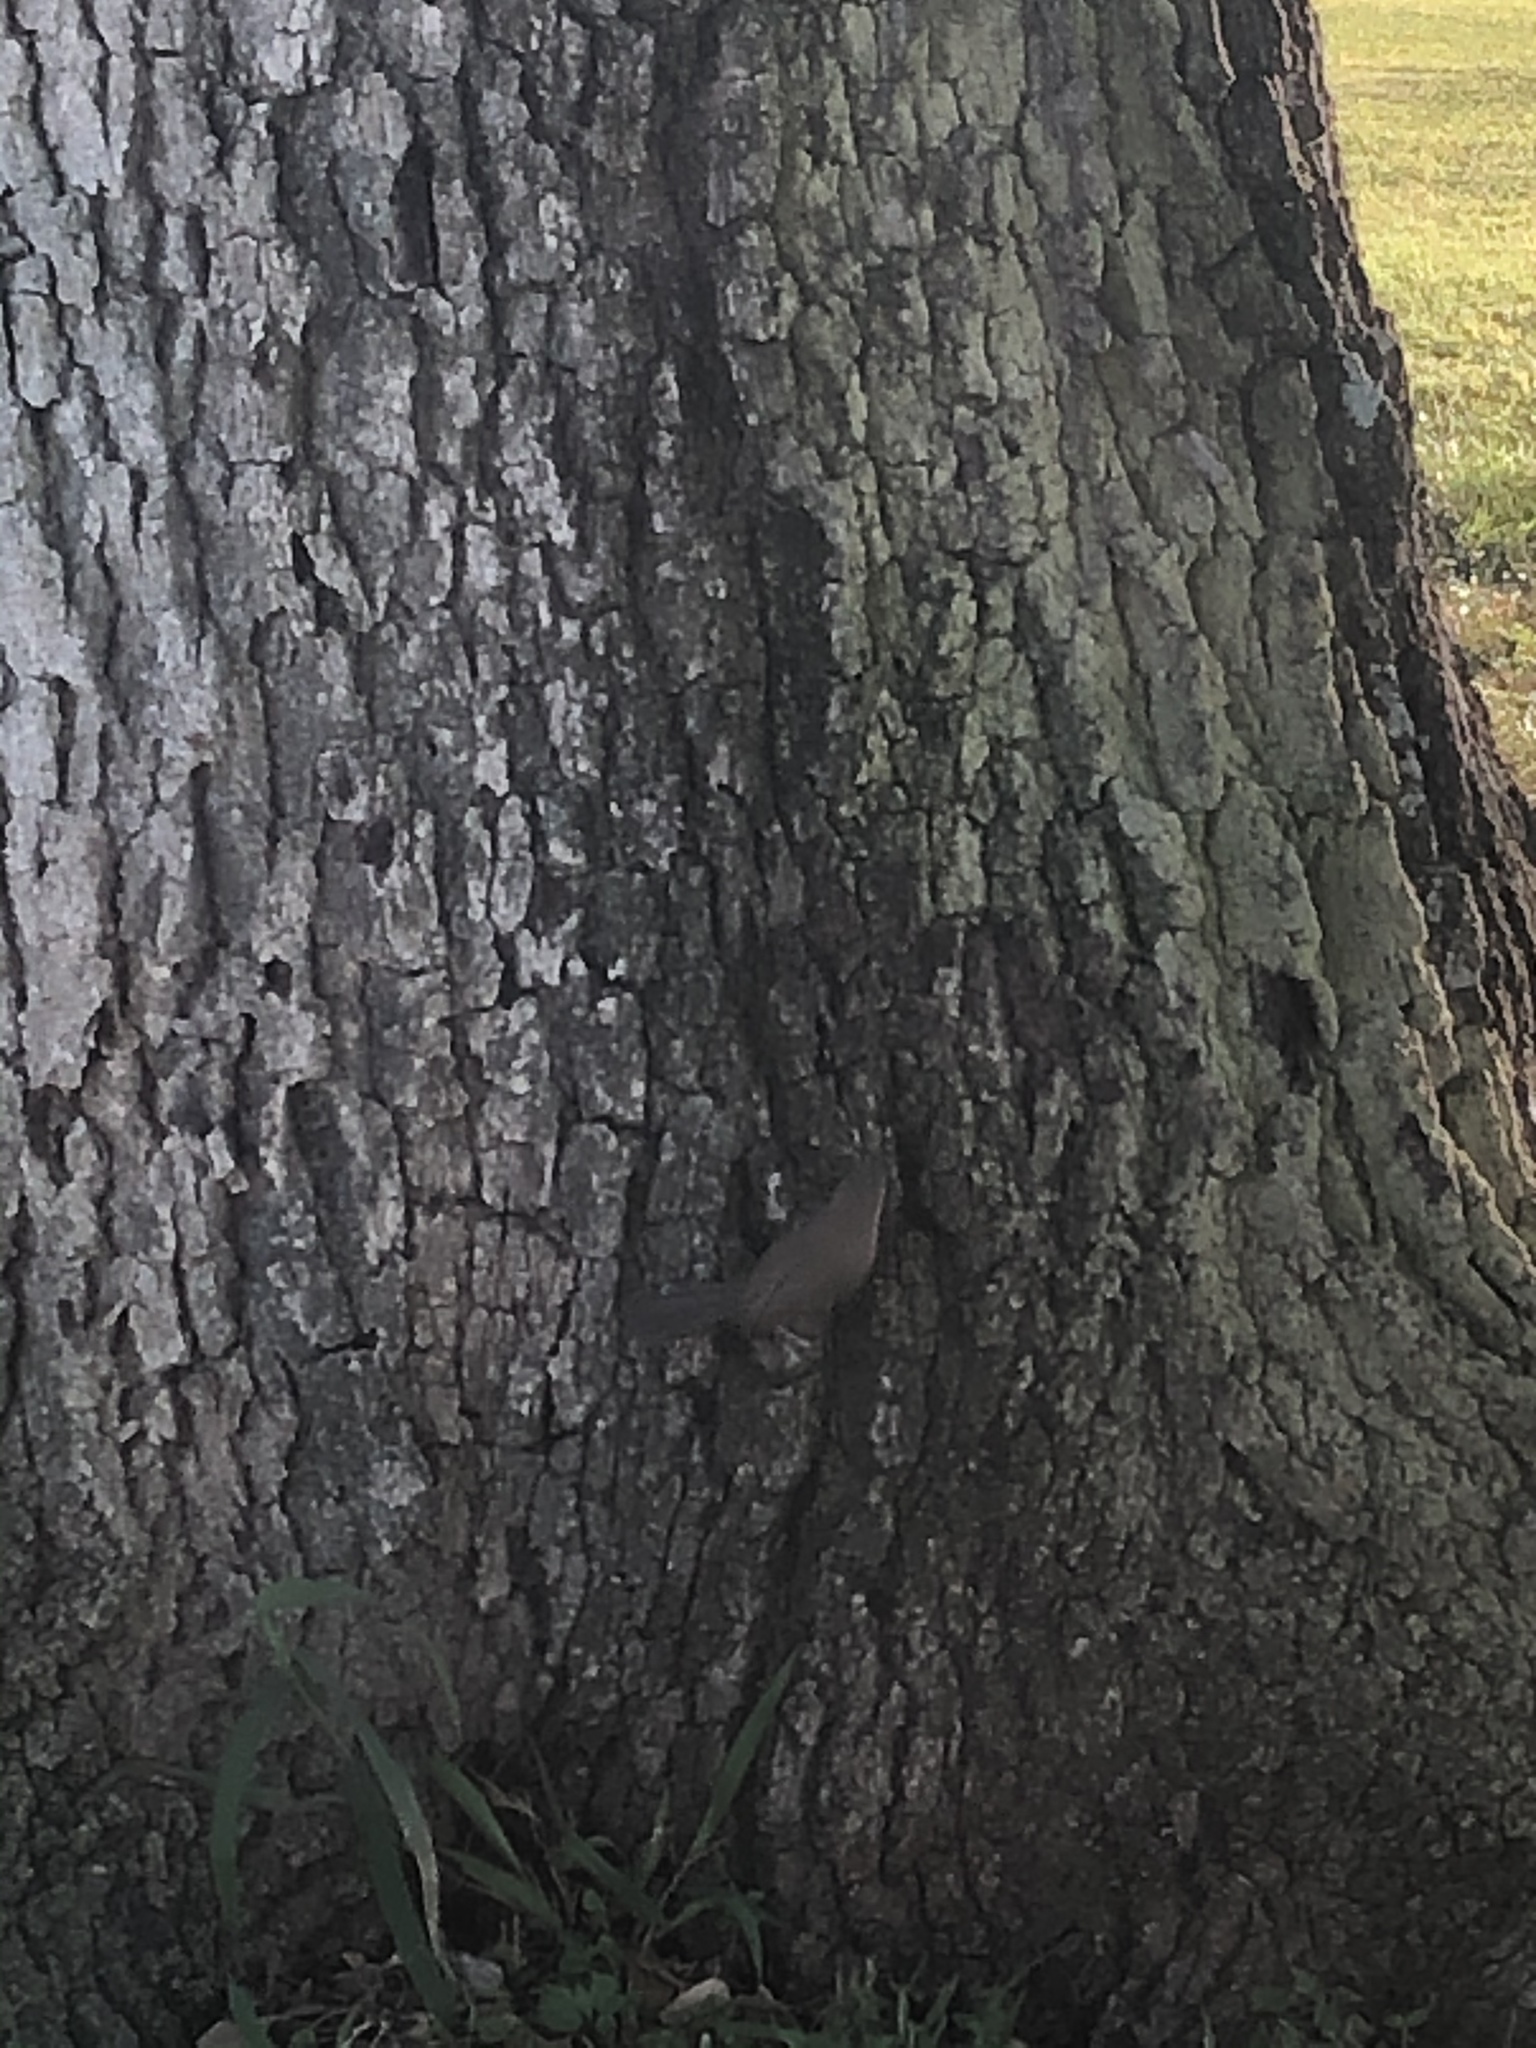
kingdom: Animalia
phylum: Chordata
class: Aves
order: Passeriformes
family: Troglodytidae
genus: Thryomanes
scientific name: Thryomanes bewickii
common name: Bewick's wren
